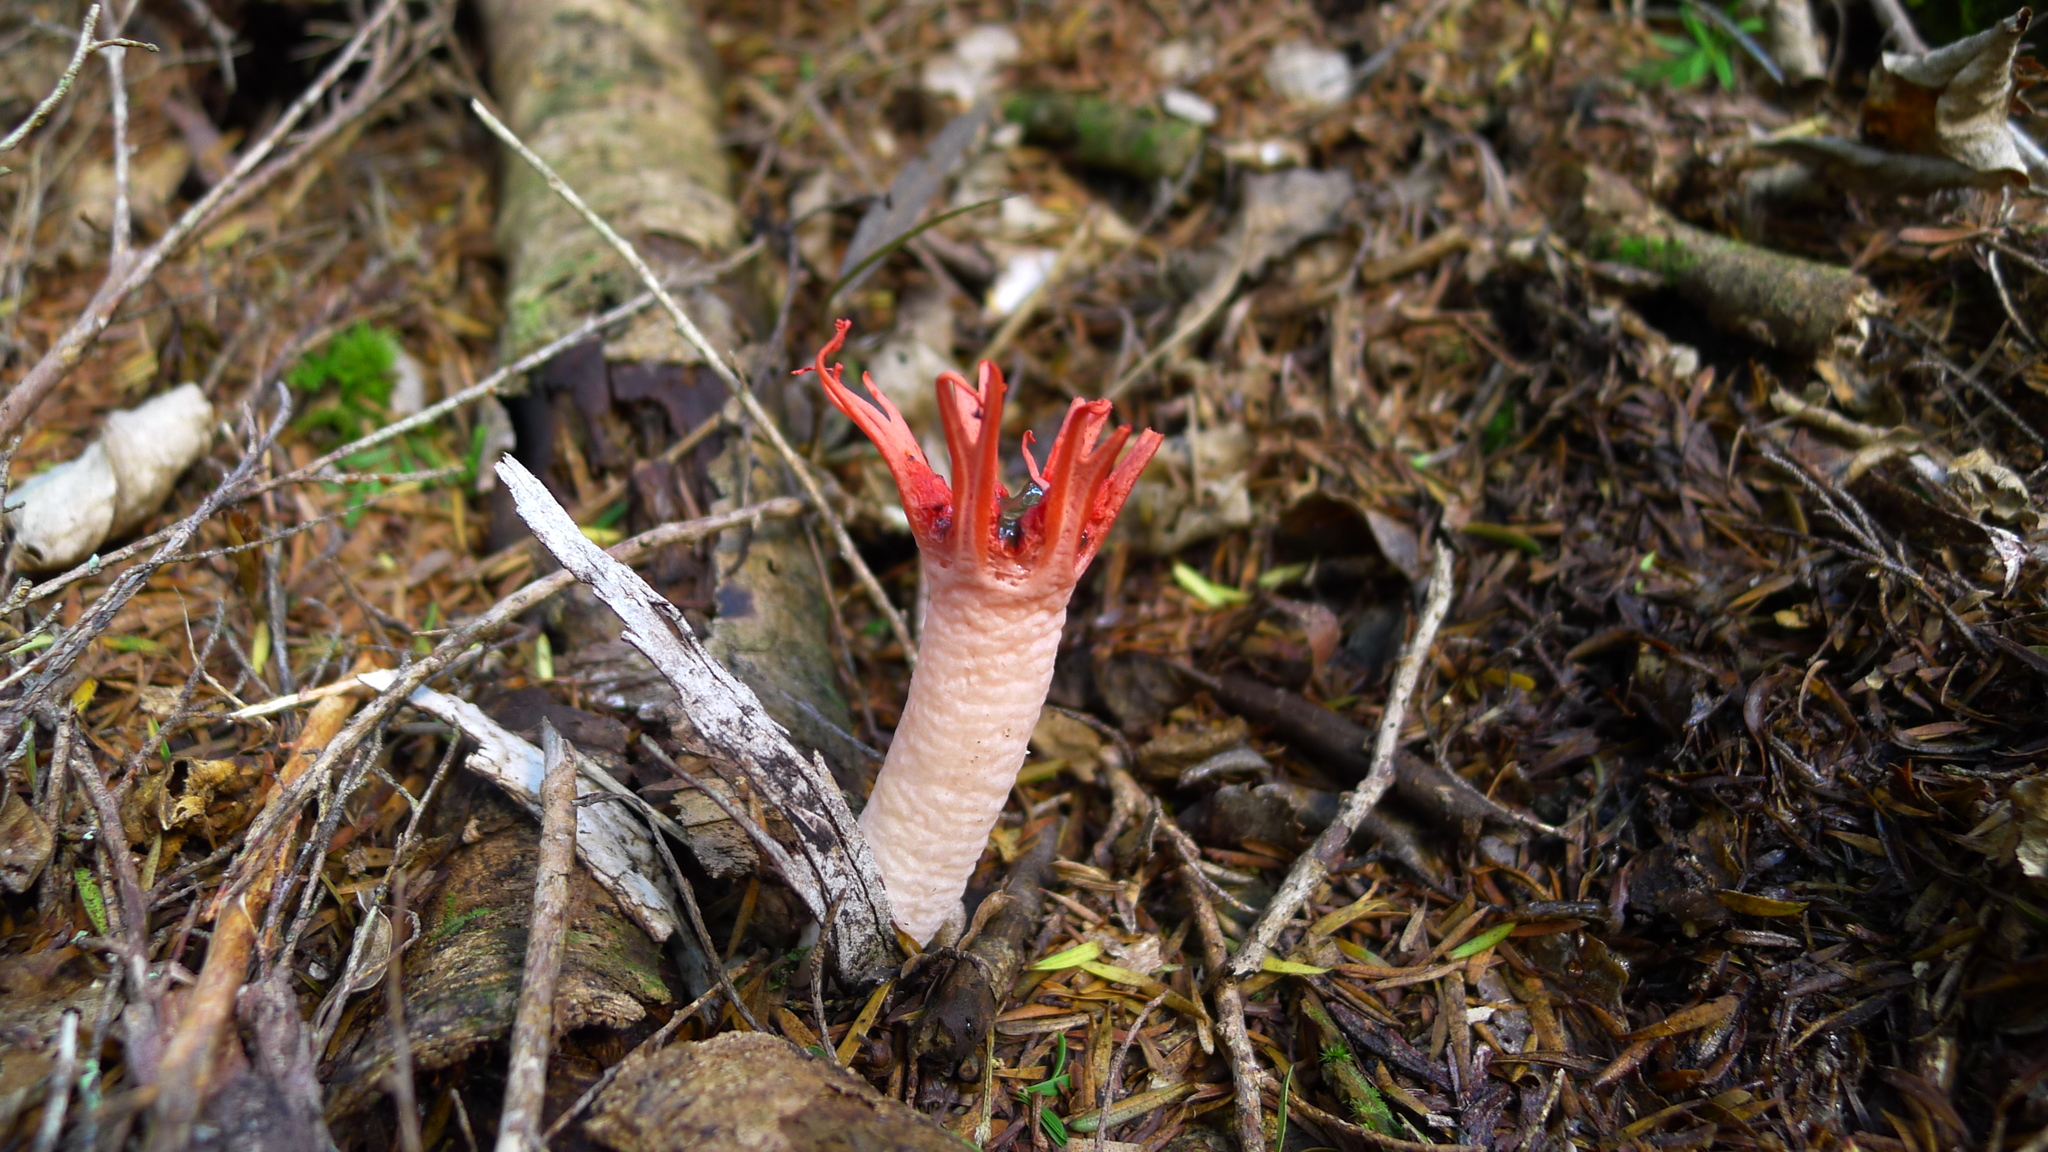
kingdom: Fungi
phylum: Basidiomycota
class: Agaricomycetes
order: Phallales
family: Phallaceae
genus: Aseroe
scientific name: Aseroe rubra
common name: Starfish fungus
